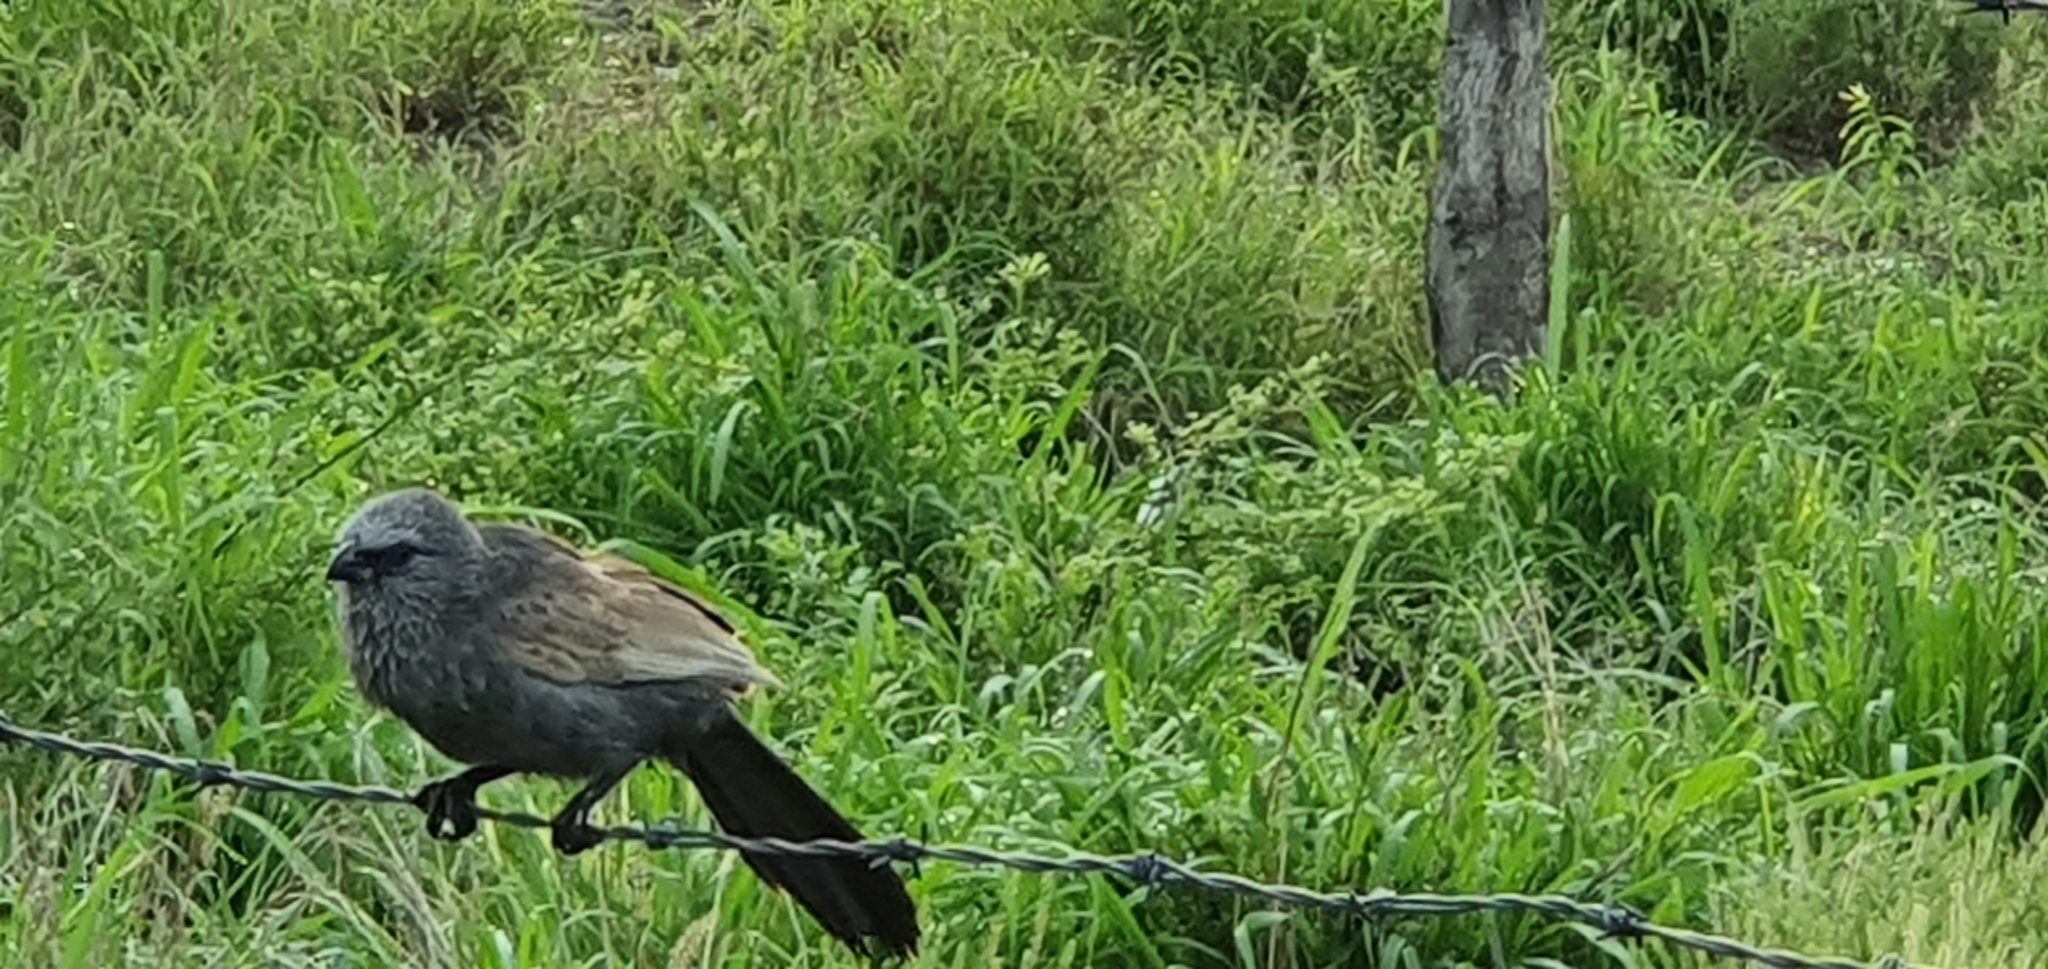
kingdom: Animalia
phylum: Chordata
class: Aves
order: Passeriformes
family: Corcoracidae
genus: Struthidea
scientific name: Struthidea cinerea
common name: Apostlebird
